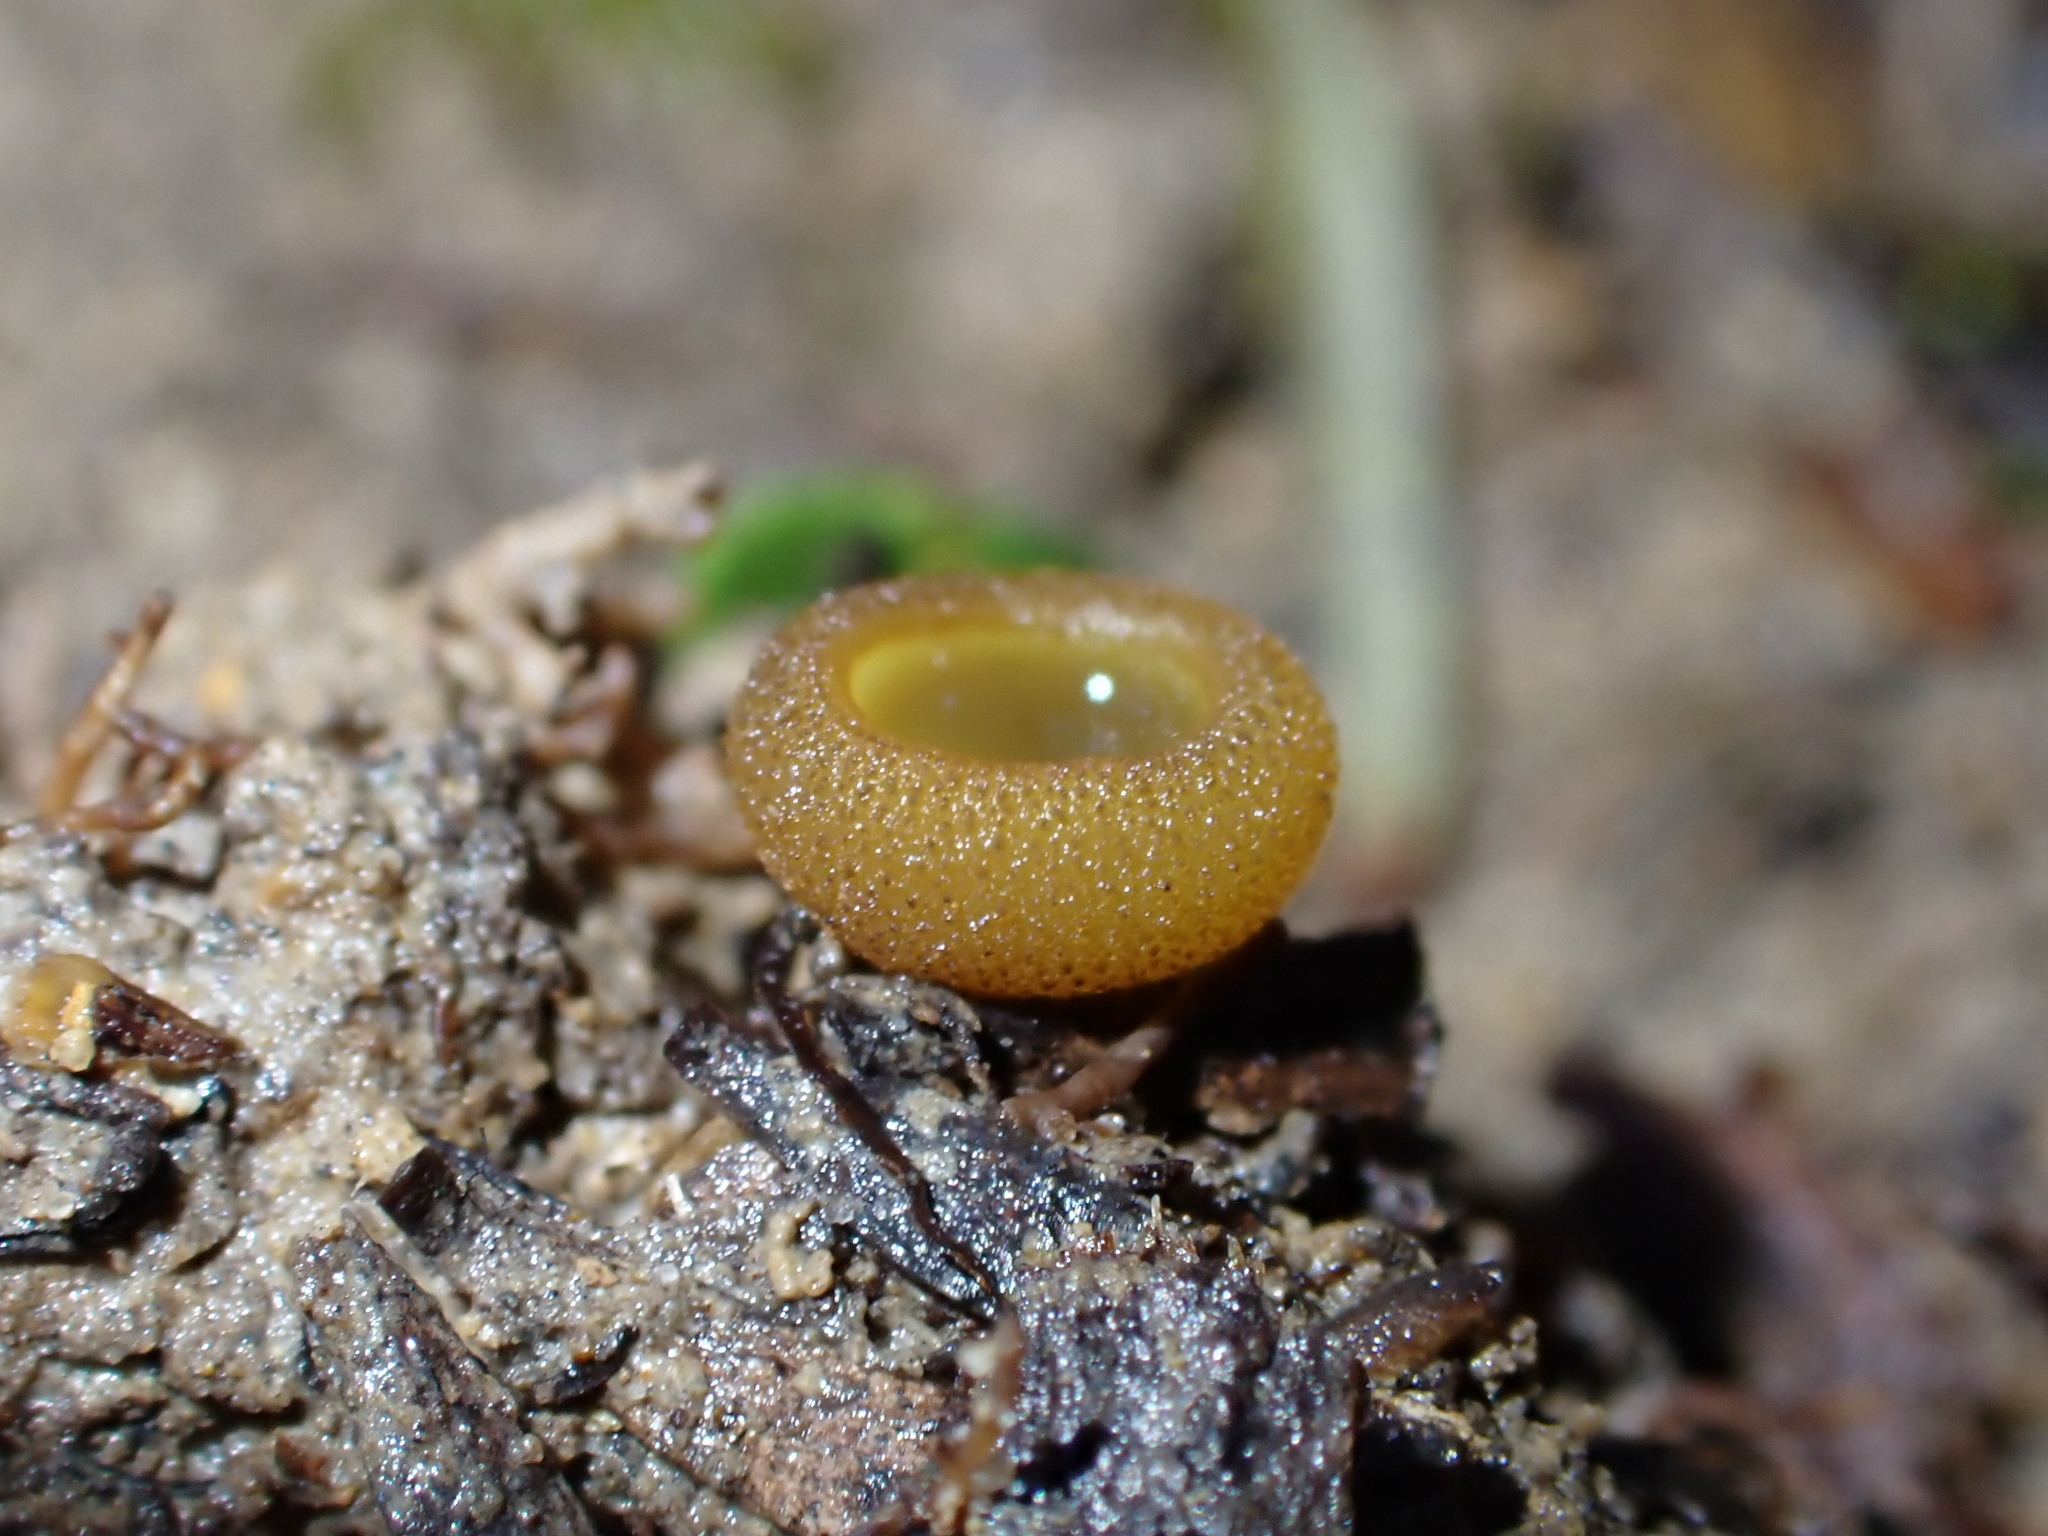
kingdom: Fungi
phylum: Ascomycota
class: Pezizomycetes
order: Pezizales
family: Pyronemataceae
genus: Aleurina
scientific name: Aleurina
